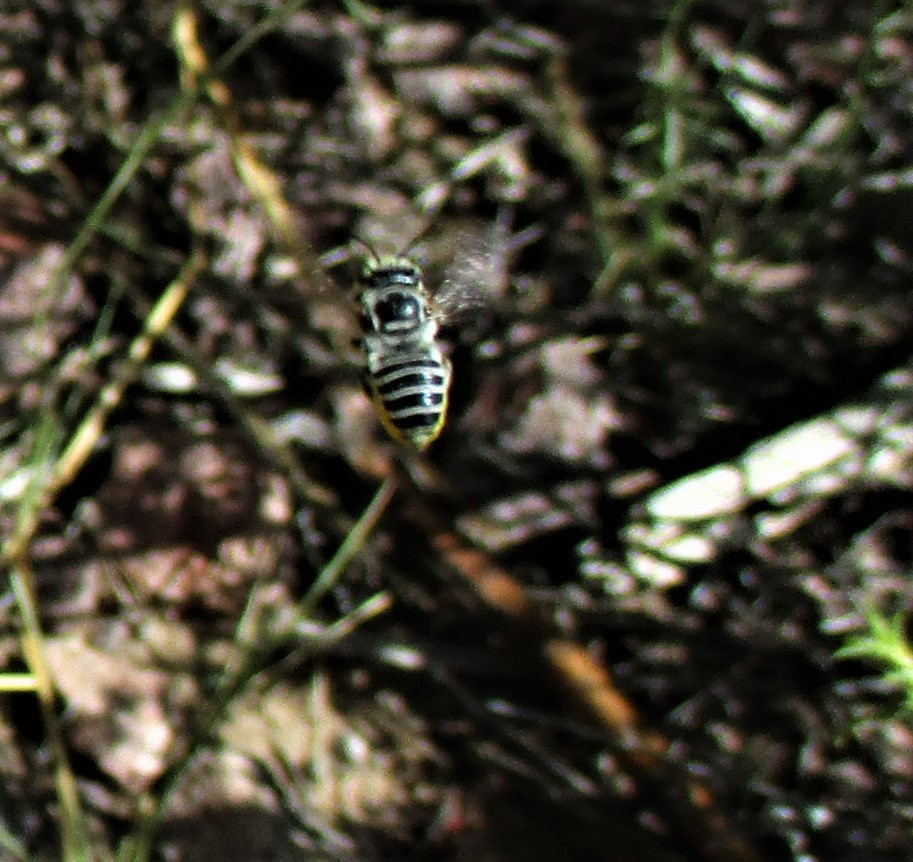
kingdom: Animalia
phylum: Arthropoda
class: Insecta
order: Hymenoptera
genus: Litomegachile
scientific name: Litomegachile
